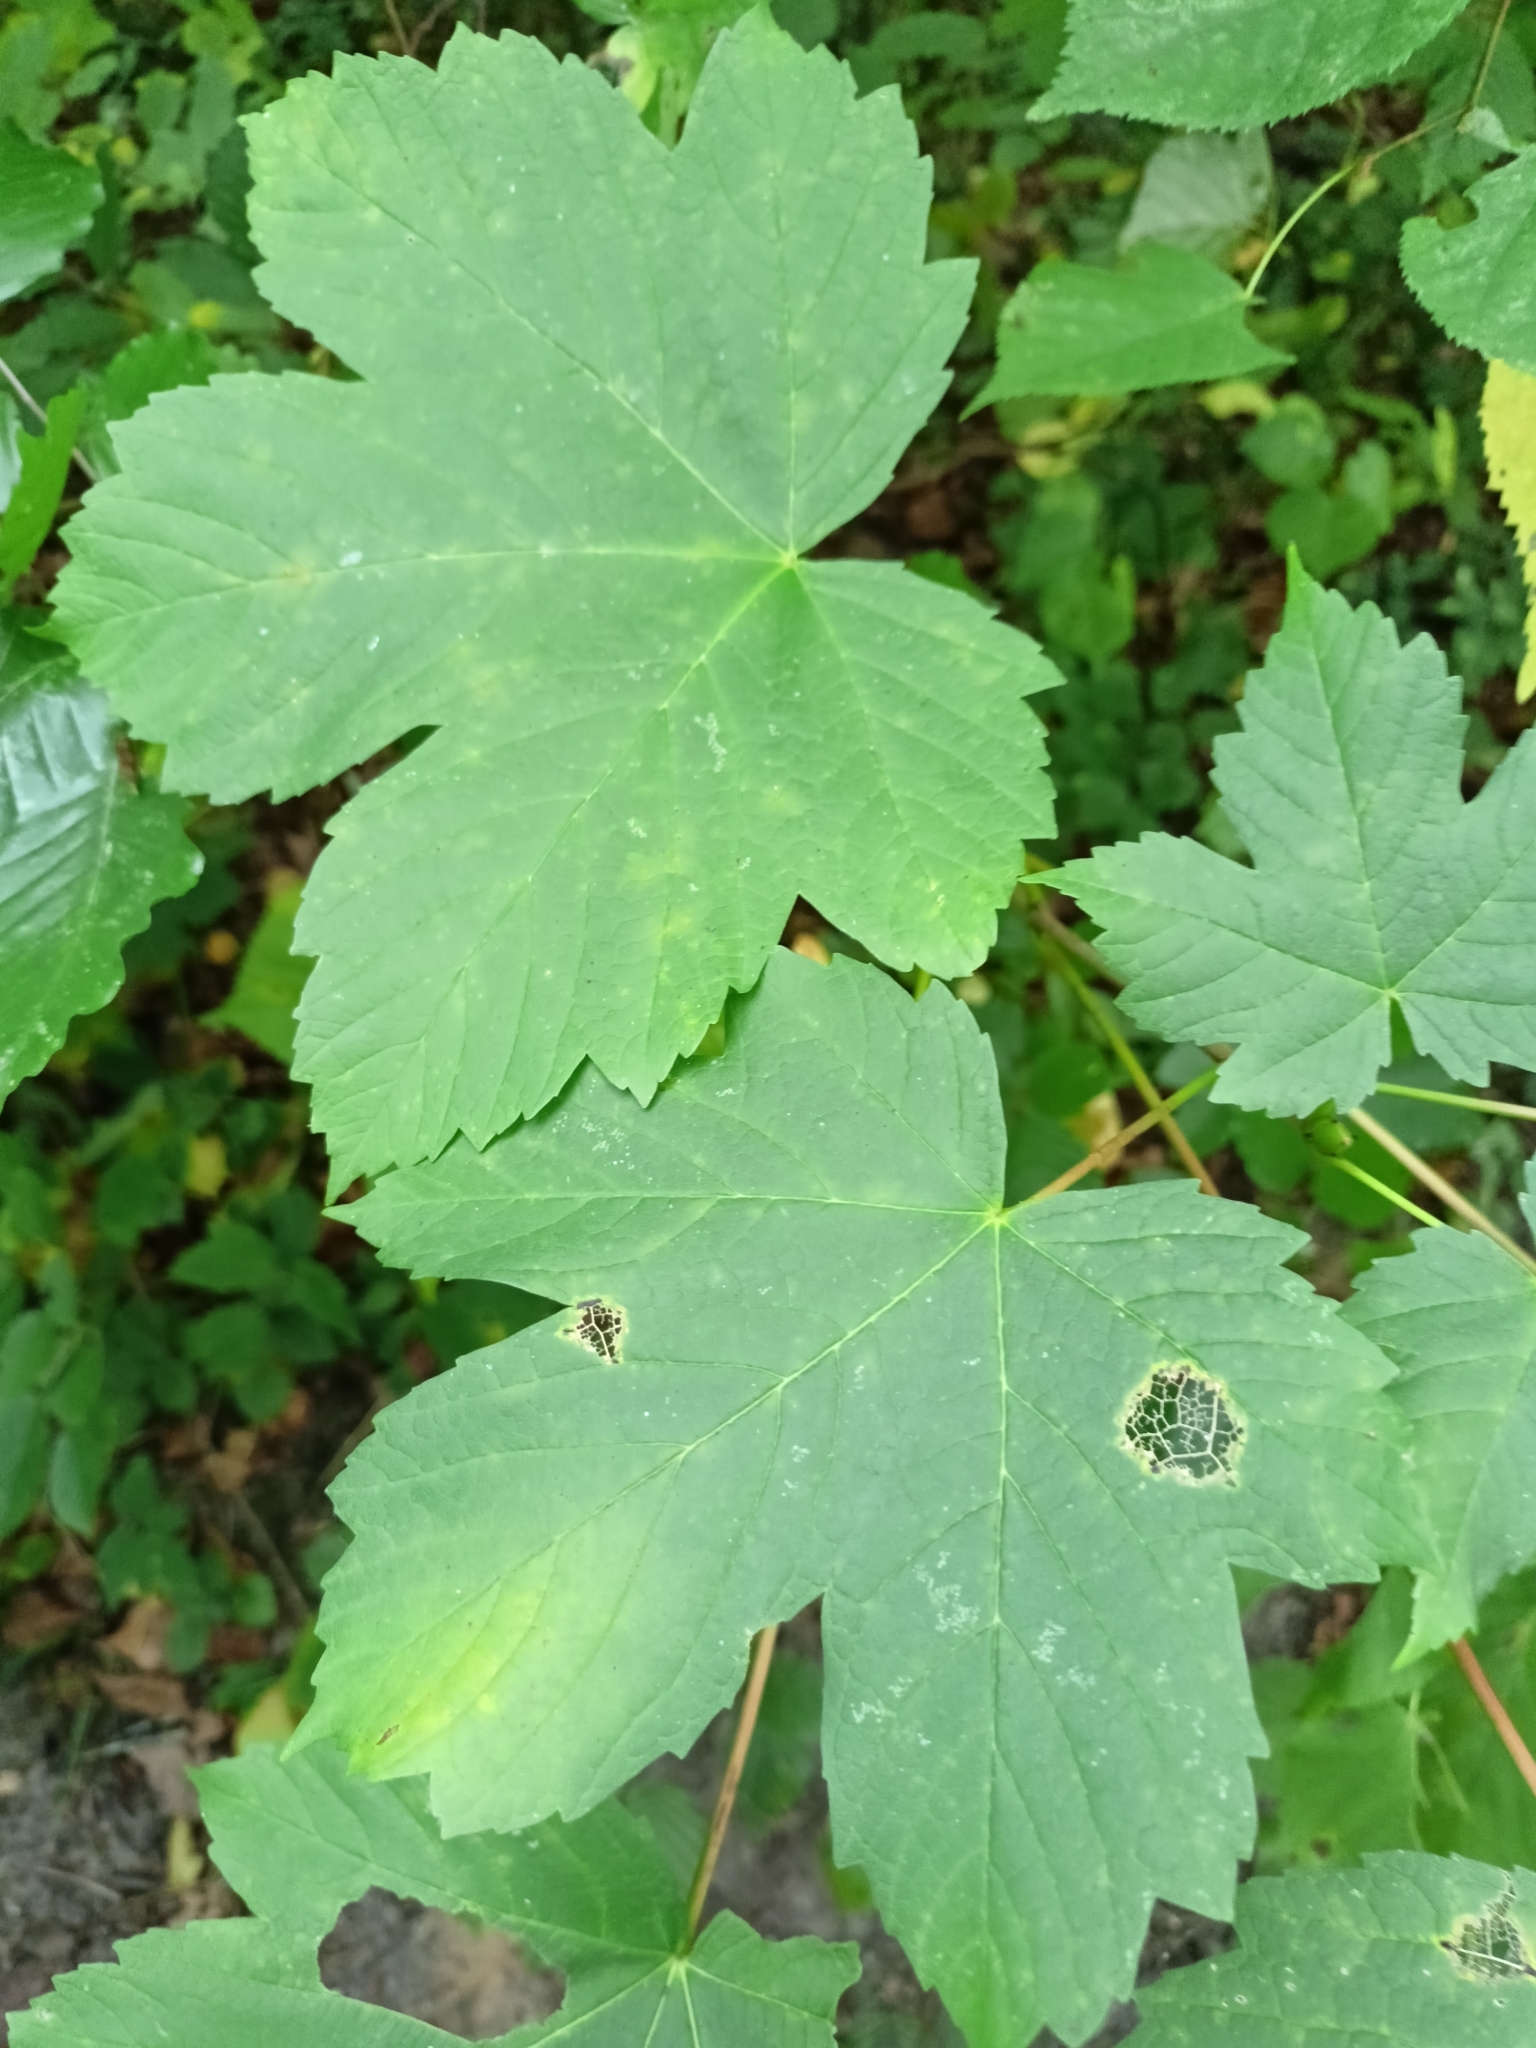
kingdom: Plantae
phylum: Tracheophyta
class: Magnoliopsida
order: Sapindales
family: Sapindaceae
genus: Acer
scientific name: Acer pseudoplatanus
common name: Sycamore
